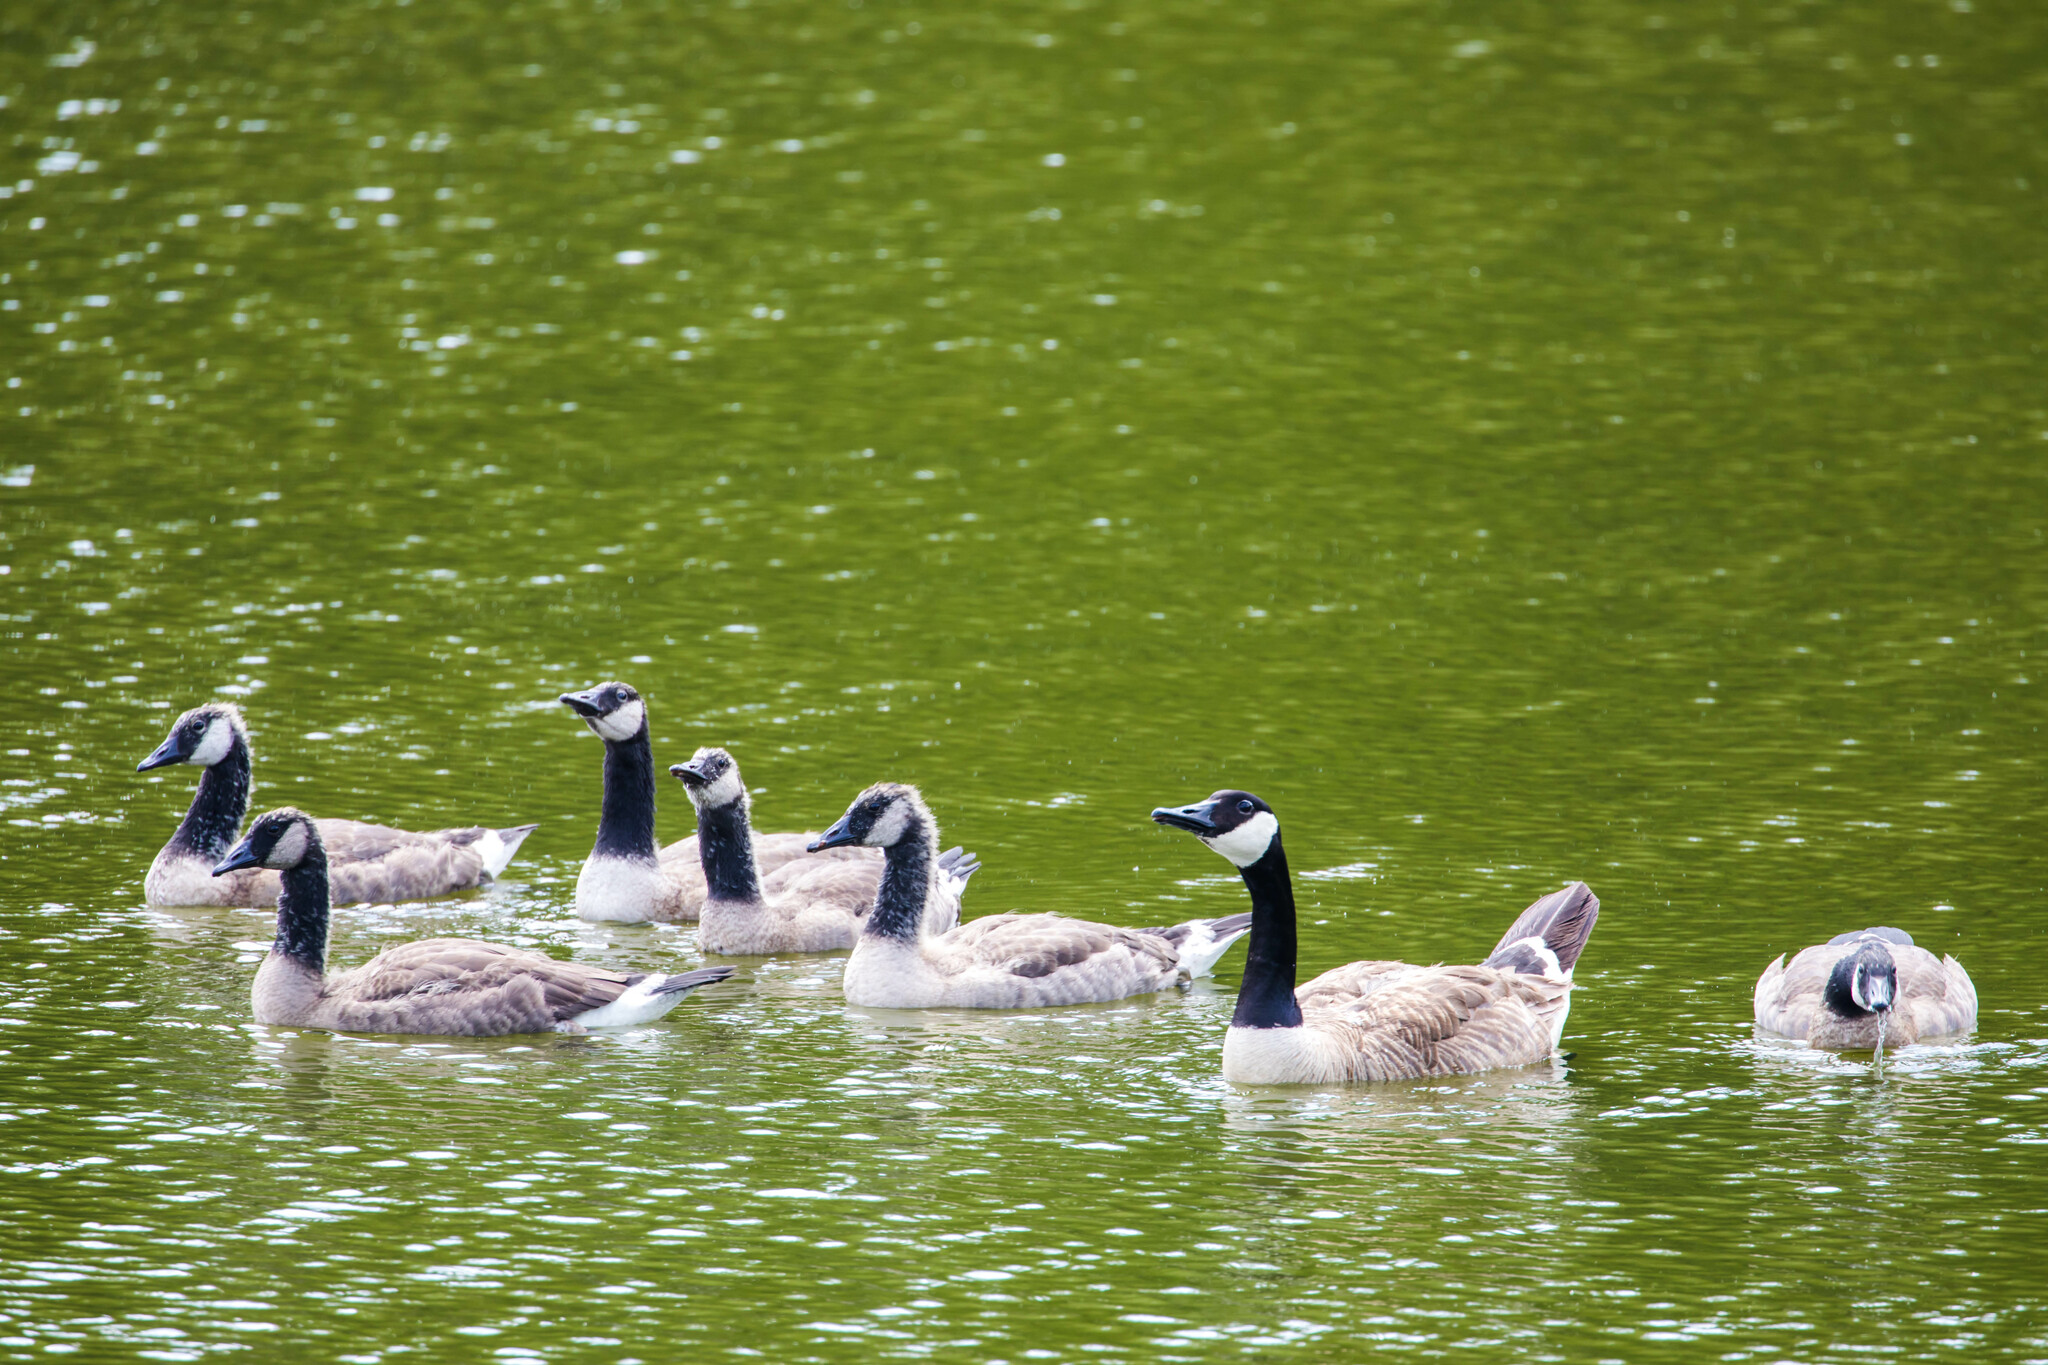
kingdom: Animalia
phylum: Chordata
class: Aves
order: Anseriformes
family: Anatidae
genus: Branta
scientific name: Branta canadensis
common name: Canada goose
